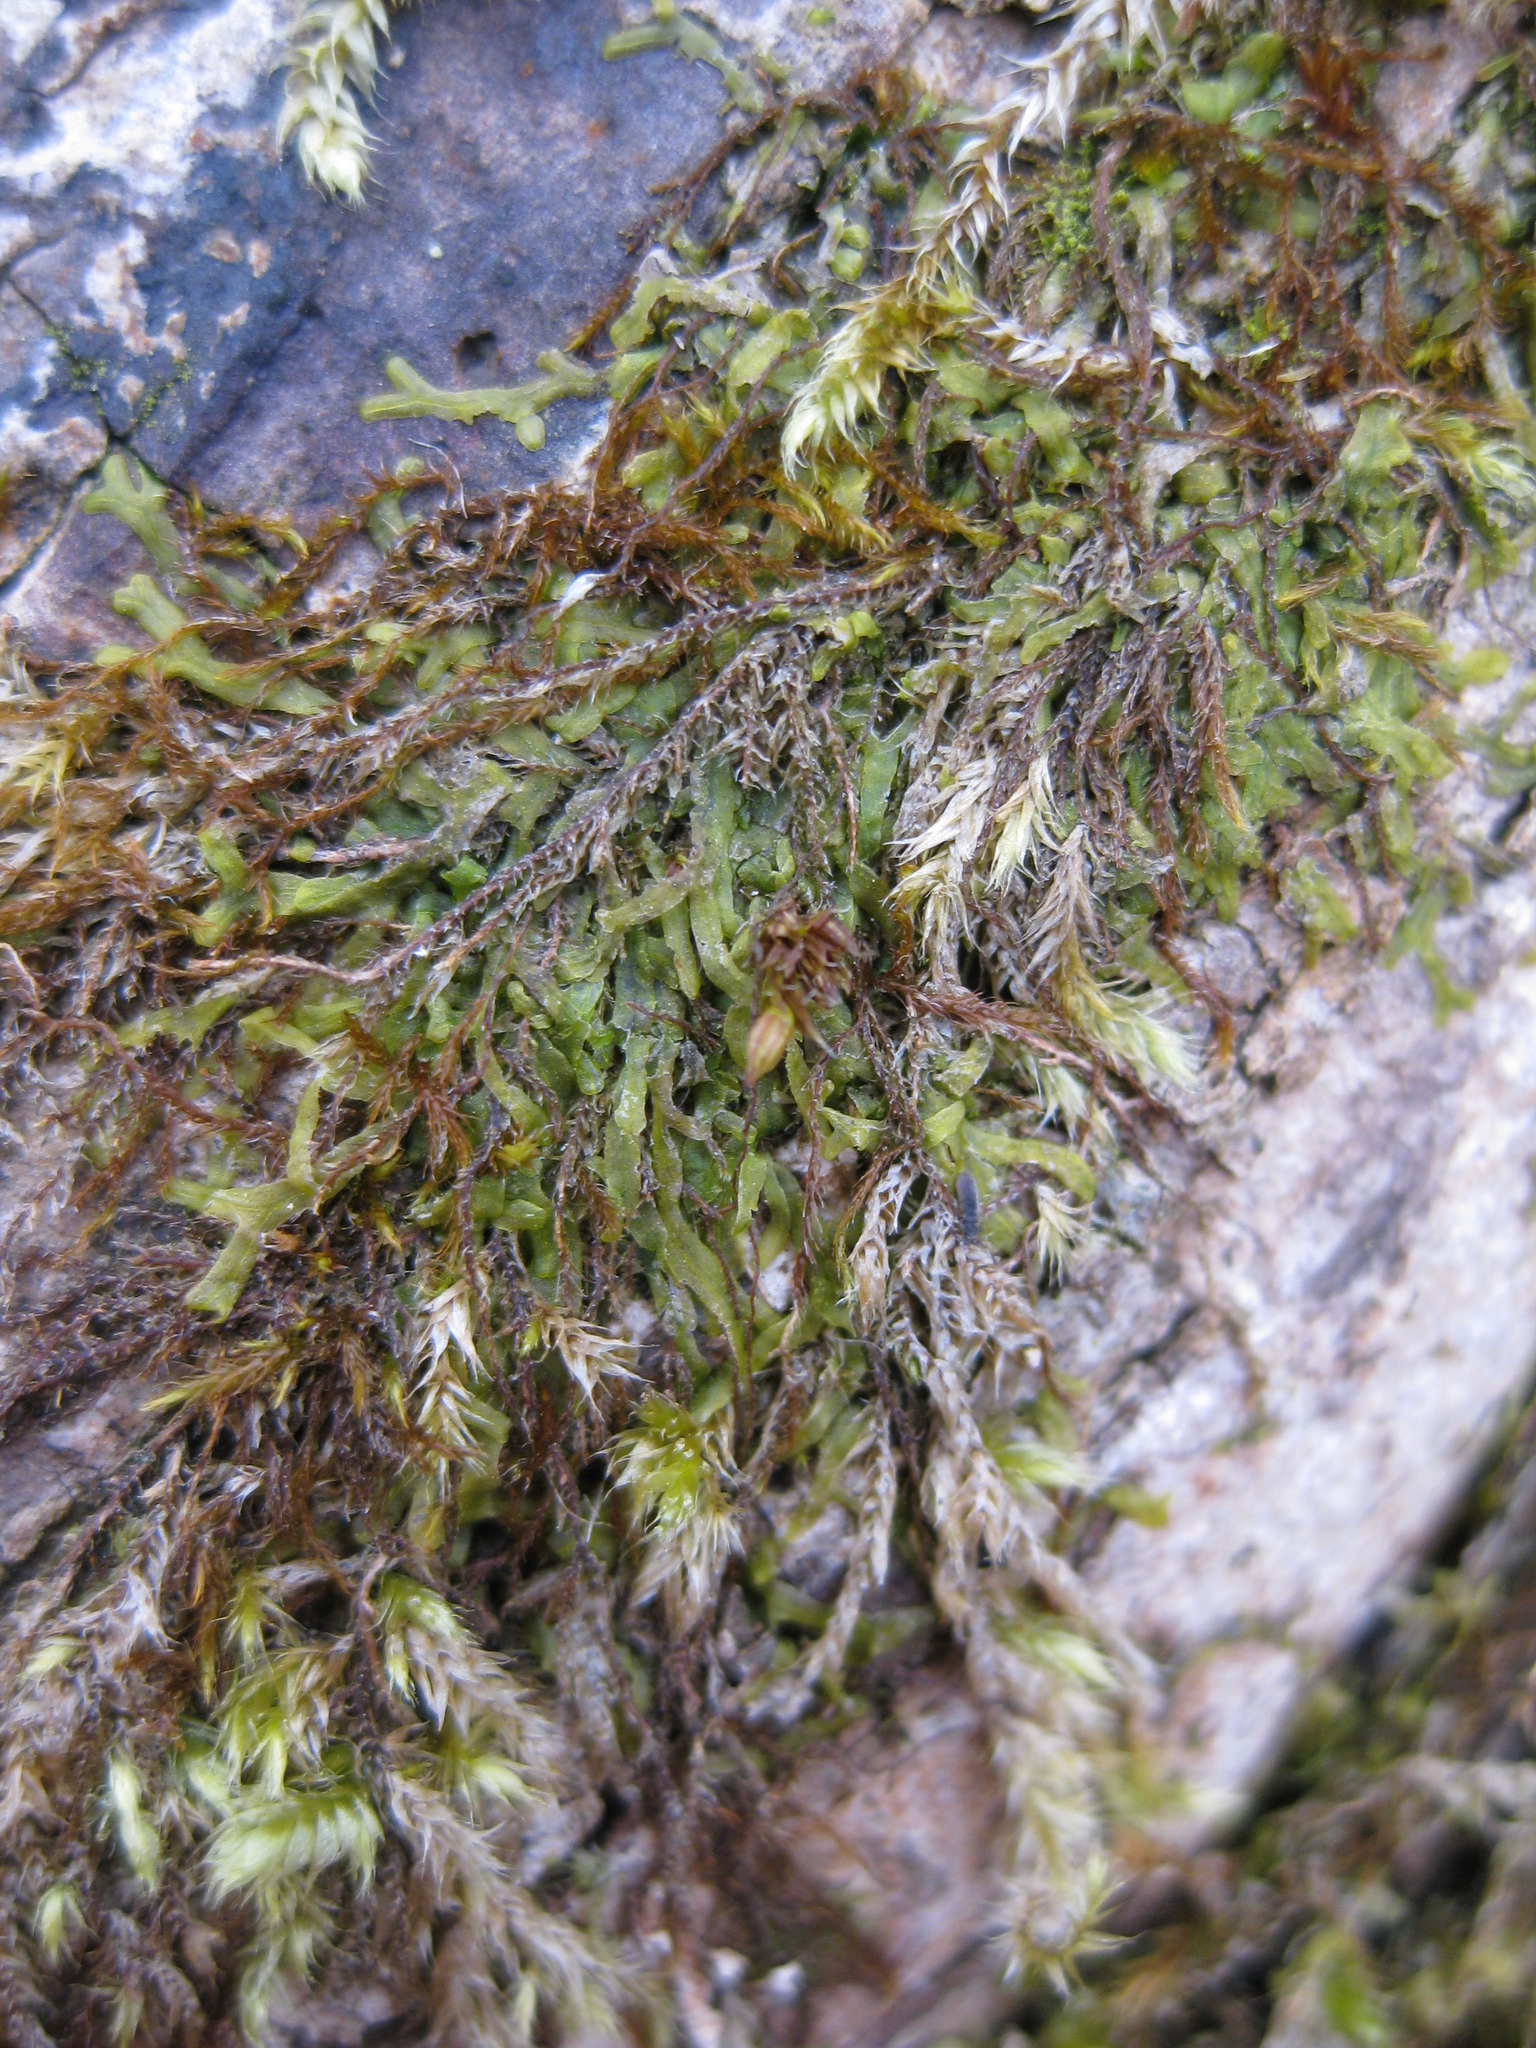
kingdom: Plantae
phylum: Bryophyta
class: Bryopsida
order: Orthotrichales
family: Orthotrichaceae
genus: Orthotrichum
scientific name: Orthotrichum diaphanum
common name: White-tipped bristle-moss
